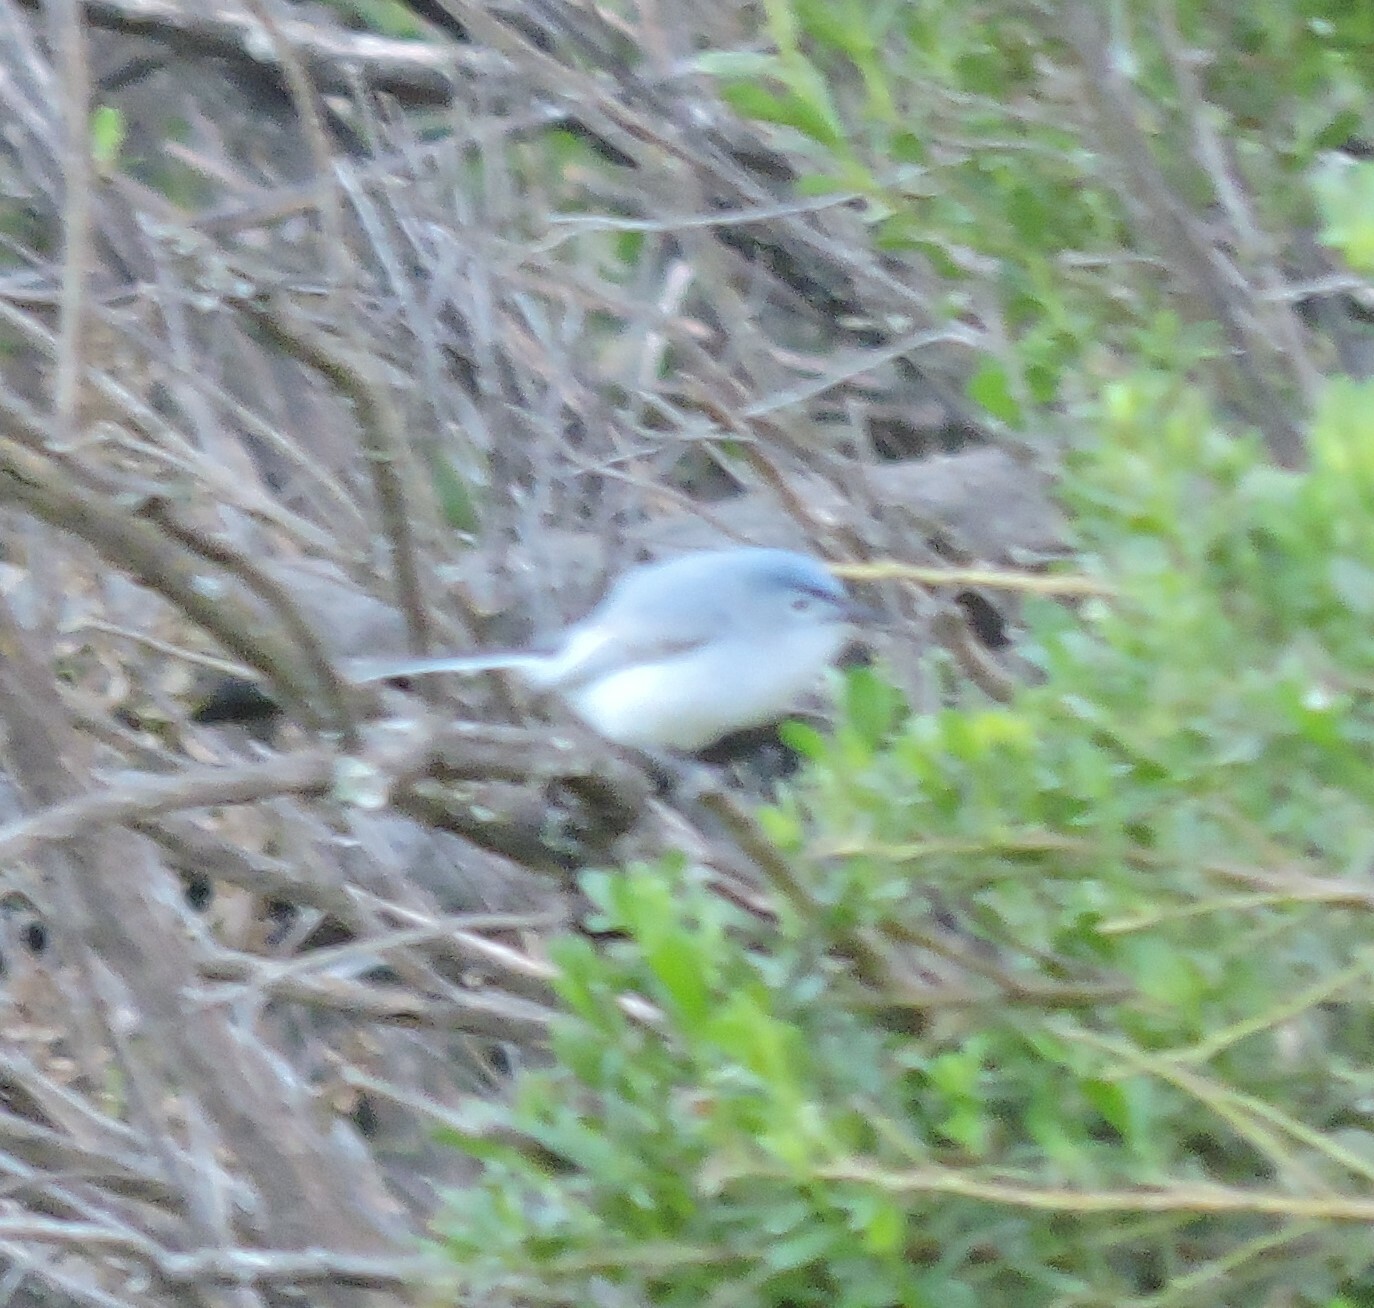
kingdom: Animalia
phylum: Chordata
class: Aves
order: Passeriformes
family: Polioptilidae
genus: Polioptila
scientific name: Polioptila caerulea
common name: Blue-gray gnatcatcher
